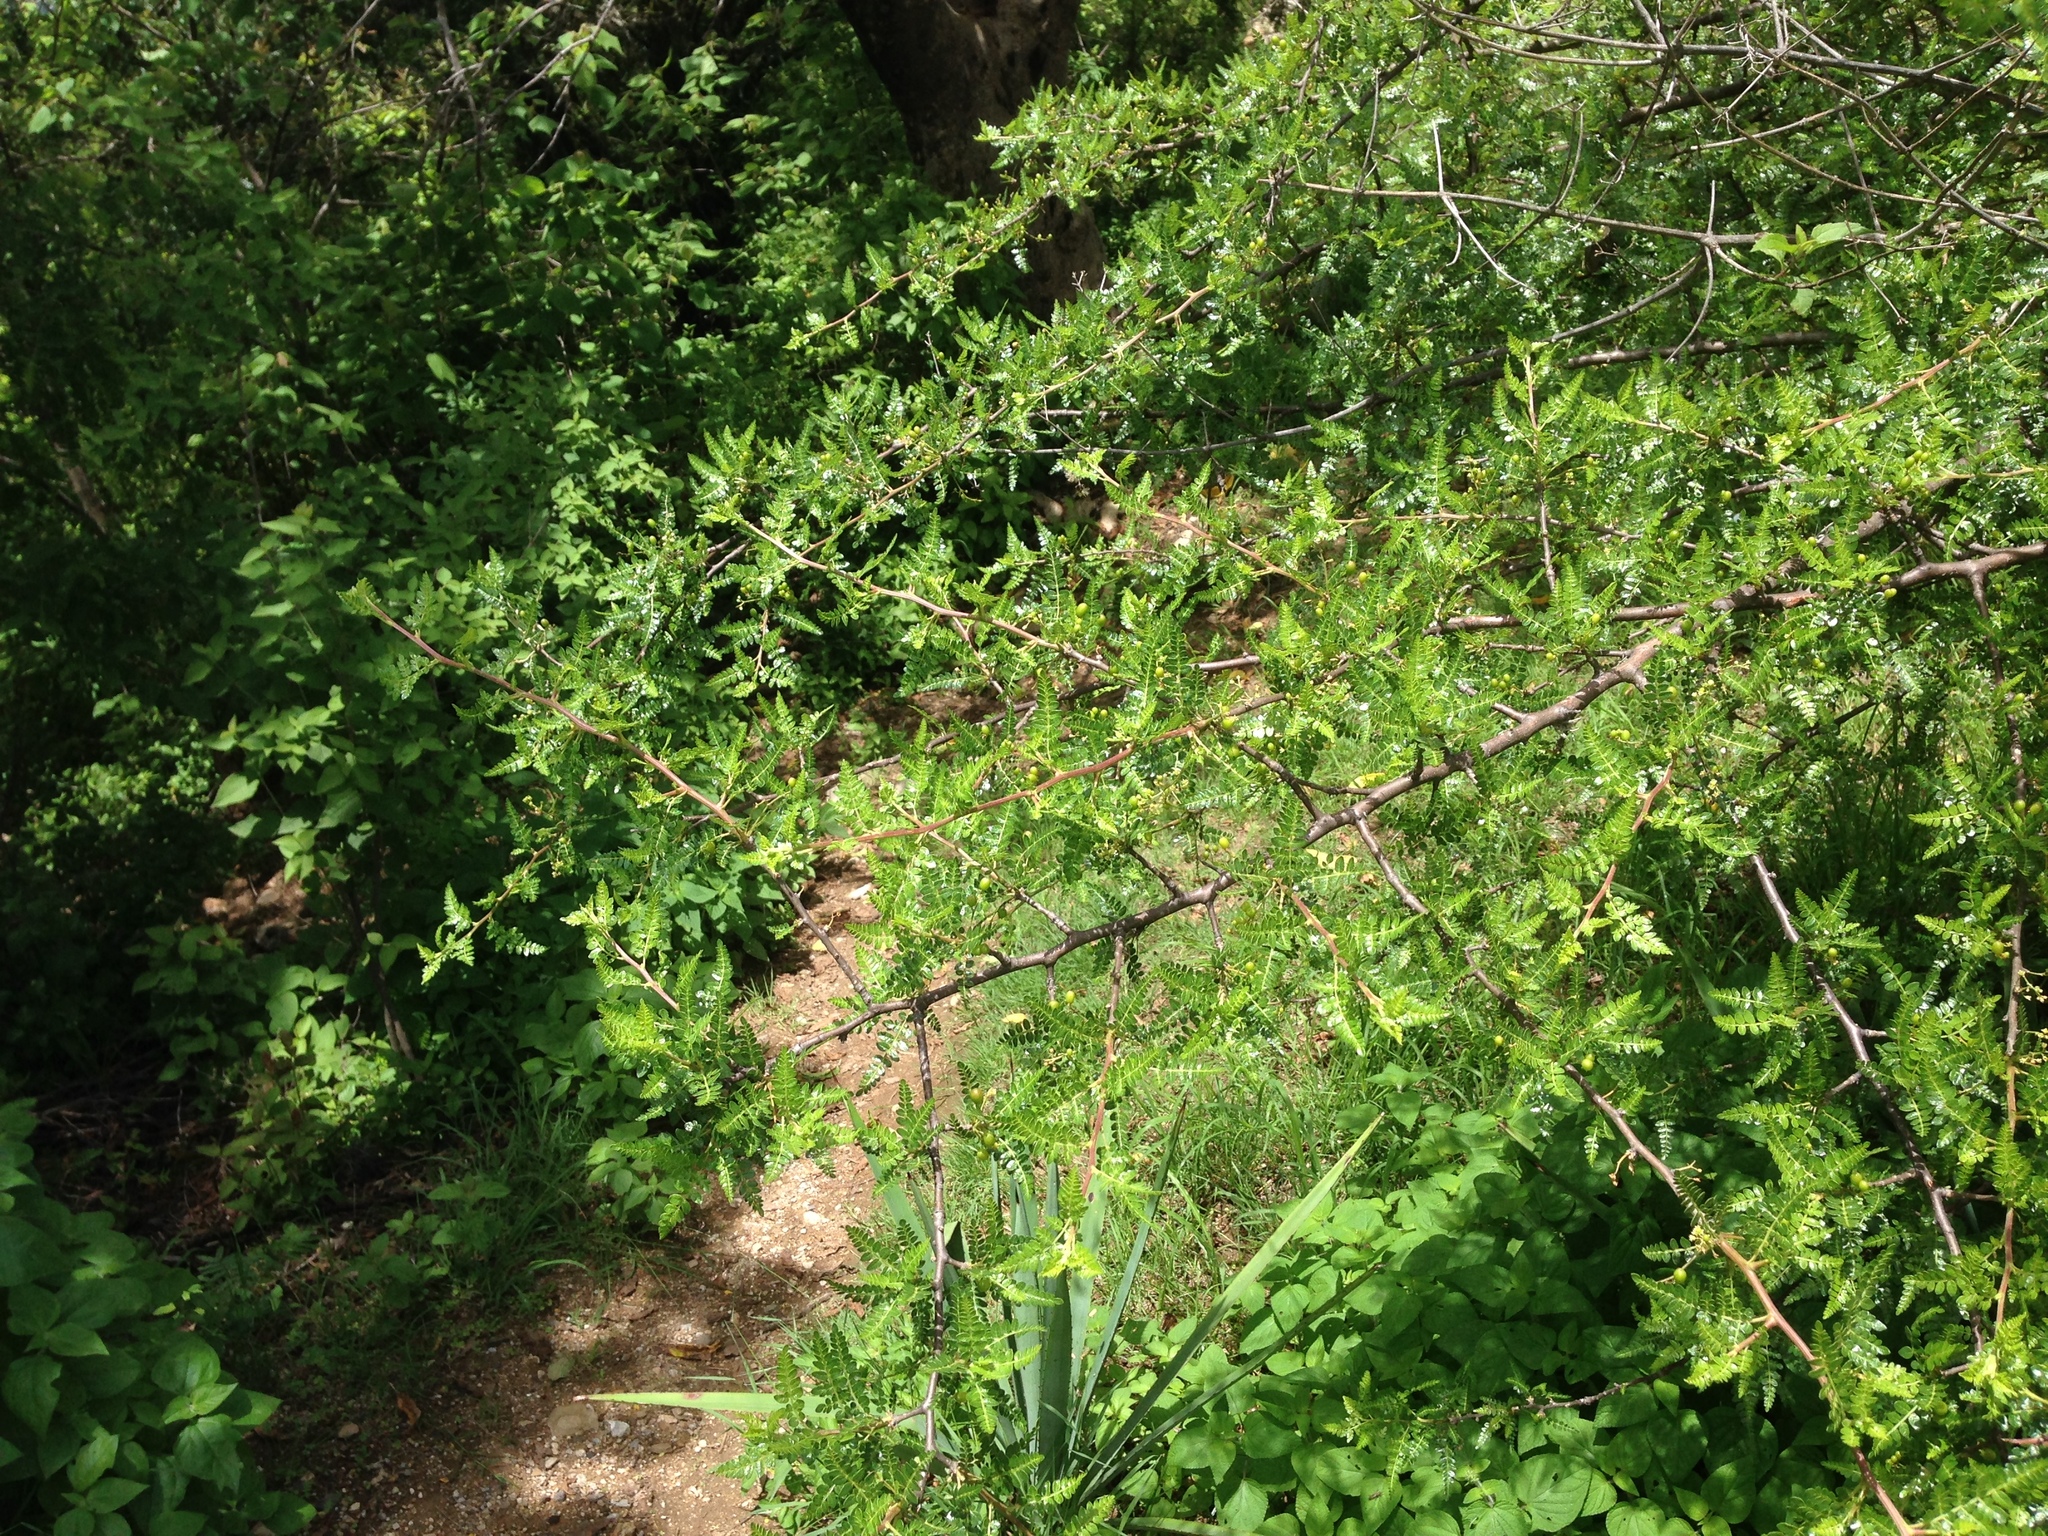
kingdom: Plantae
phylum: Tracheophyta
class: Magnoliopsida
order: Sapindales
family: Burseraceae
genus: Bursera
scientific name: Bursera bipinnata
